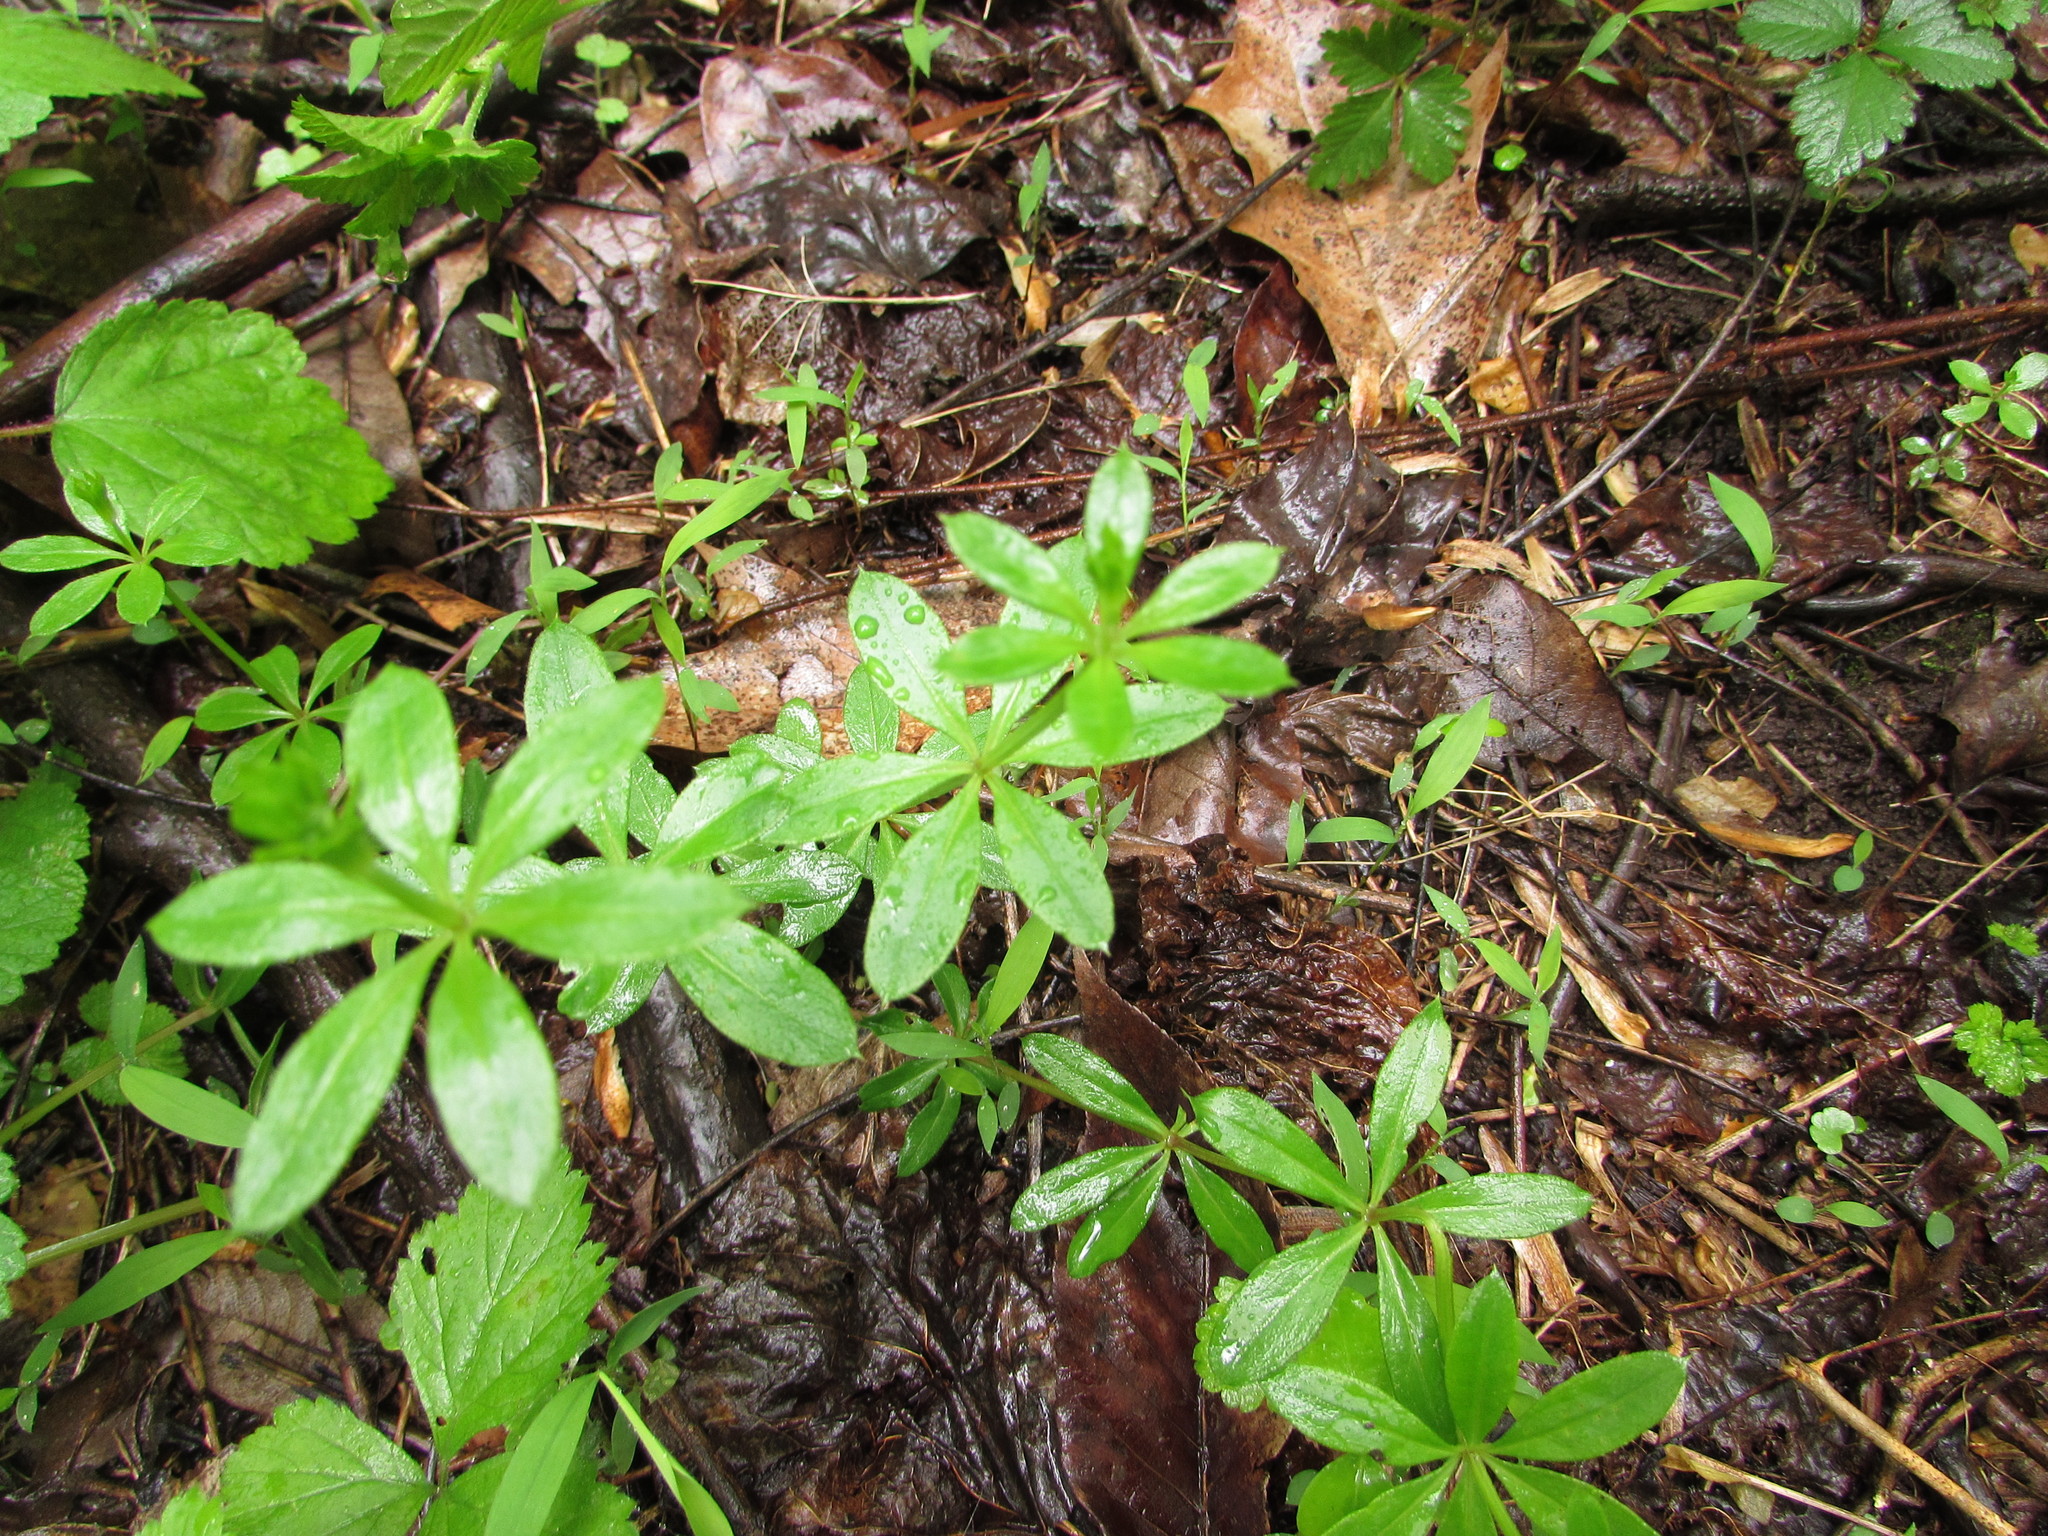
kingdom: Plantae
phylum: Tracheophyta
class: Magnoliopsida
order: Gentianales
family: Rubiaceae
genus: Galium
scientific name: Galium triflorum
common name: Fragrant bedstraw
